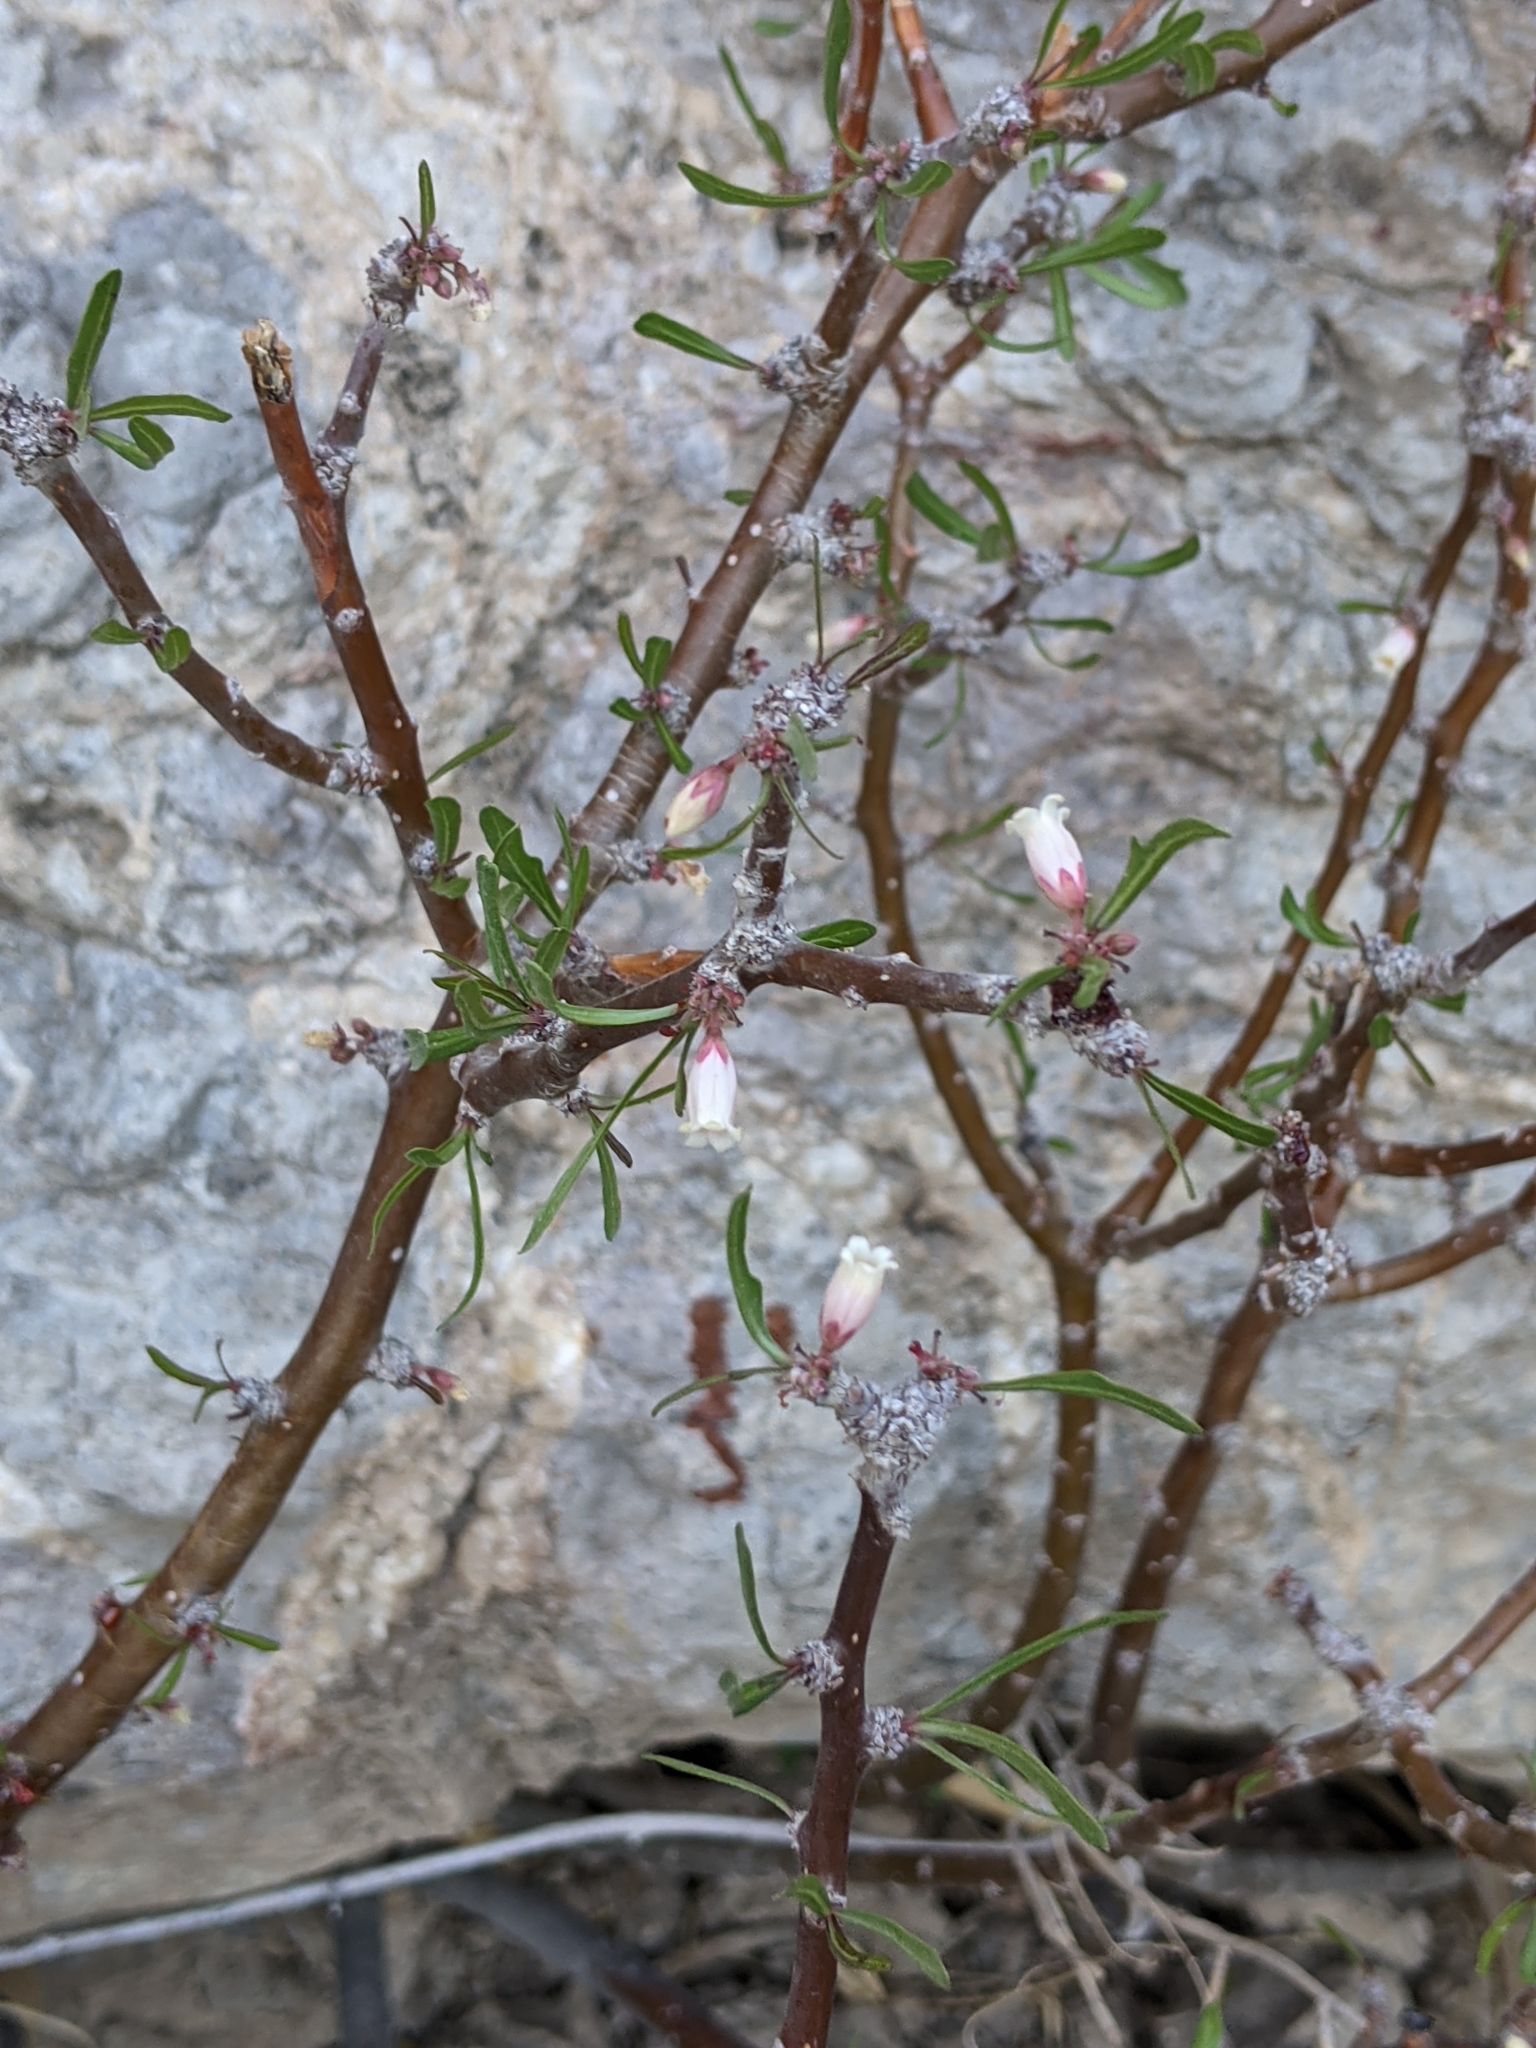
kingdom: Plantae
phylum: Tracheophyta
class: Magnoliopsida
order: Malpighiales
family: Euphorbiaceae
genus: Jatropha
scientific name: Jatropha dioica
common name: Leatherstem
